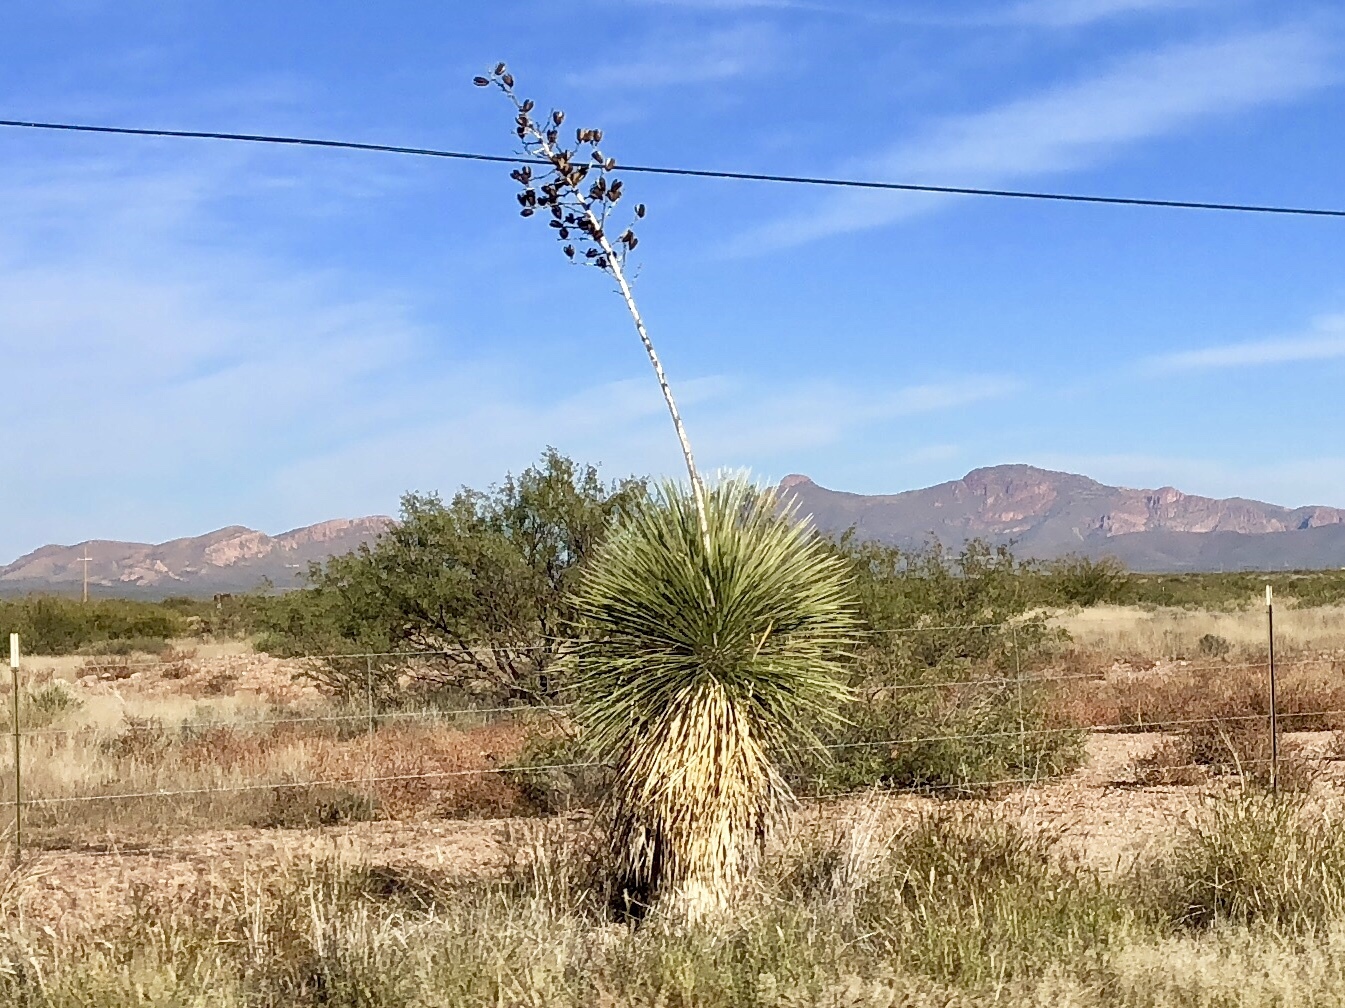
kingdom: Plantae
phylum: Tracheophyta
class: Liliopsida
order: Asparagales
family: Asparagaceae
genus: Yucca
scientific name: Yucca elata
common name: Palmella
